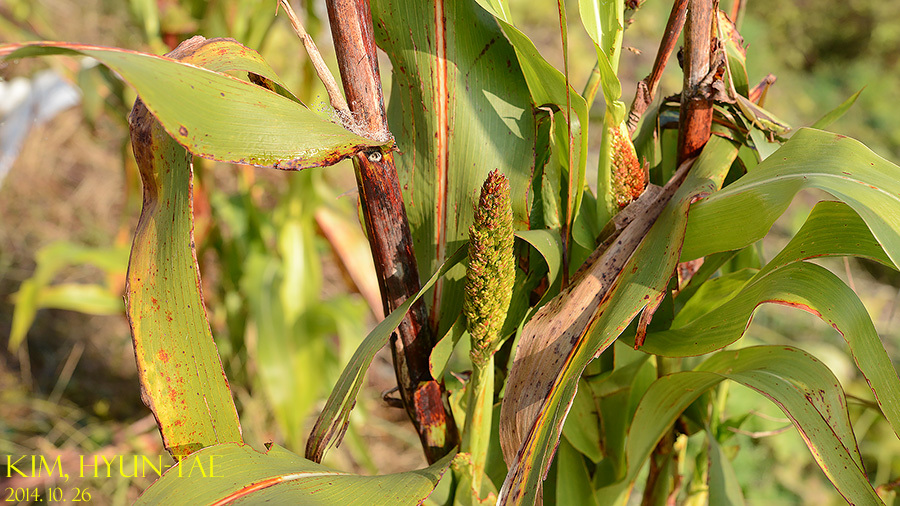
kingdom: Plantae
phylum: Tracheophyta
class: Liliopsida
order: Poales
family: Poaceae
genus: Sorghum
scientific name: Sorghum bicolor
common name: Sorghum
